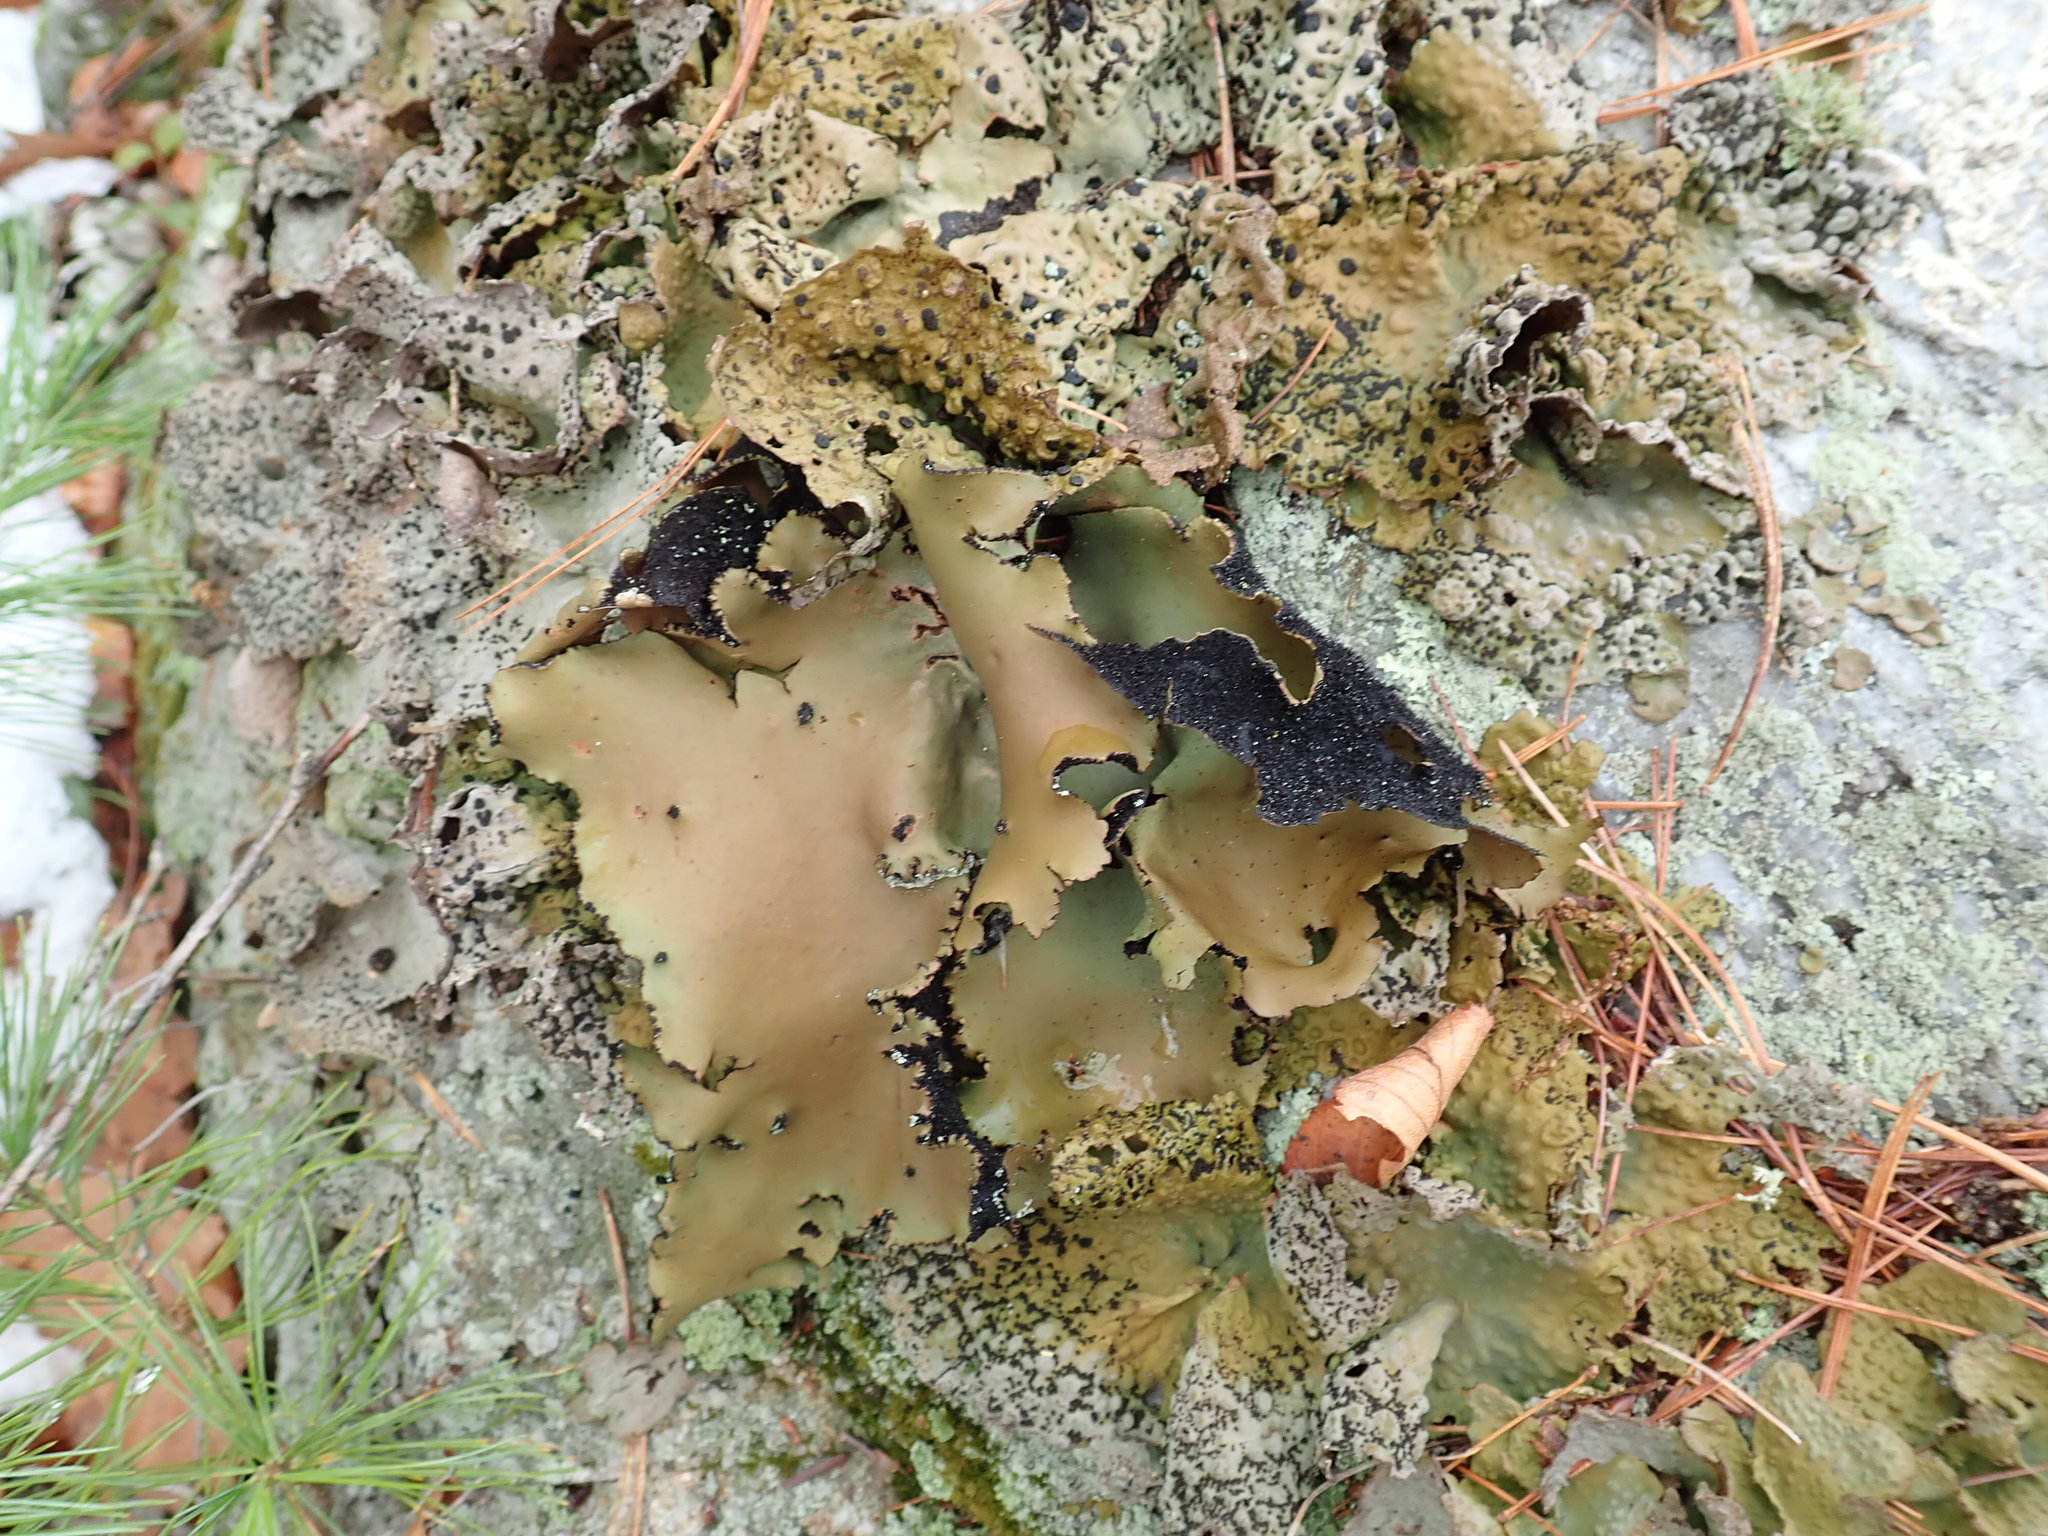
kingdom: Fungi
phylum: Ascomycota
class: Lecanoromycetes
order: Umbilicariales
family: Umbilicariaceae
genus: Umbilicaria
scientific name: Umbilicaria mammulata
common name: Smooth rock tripe
